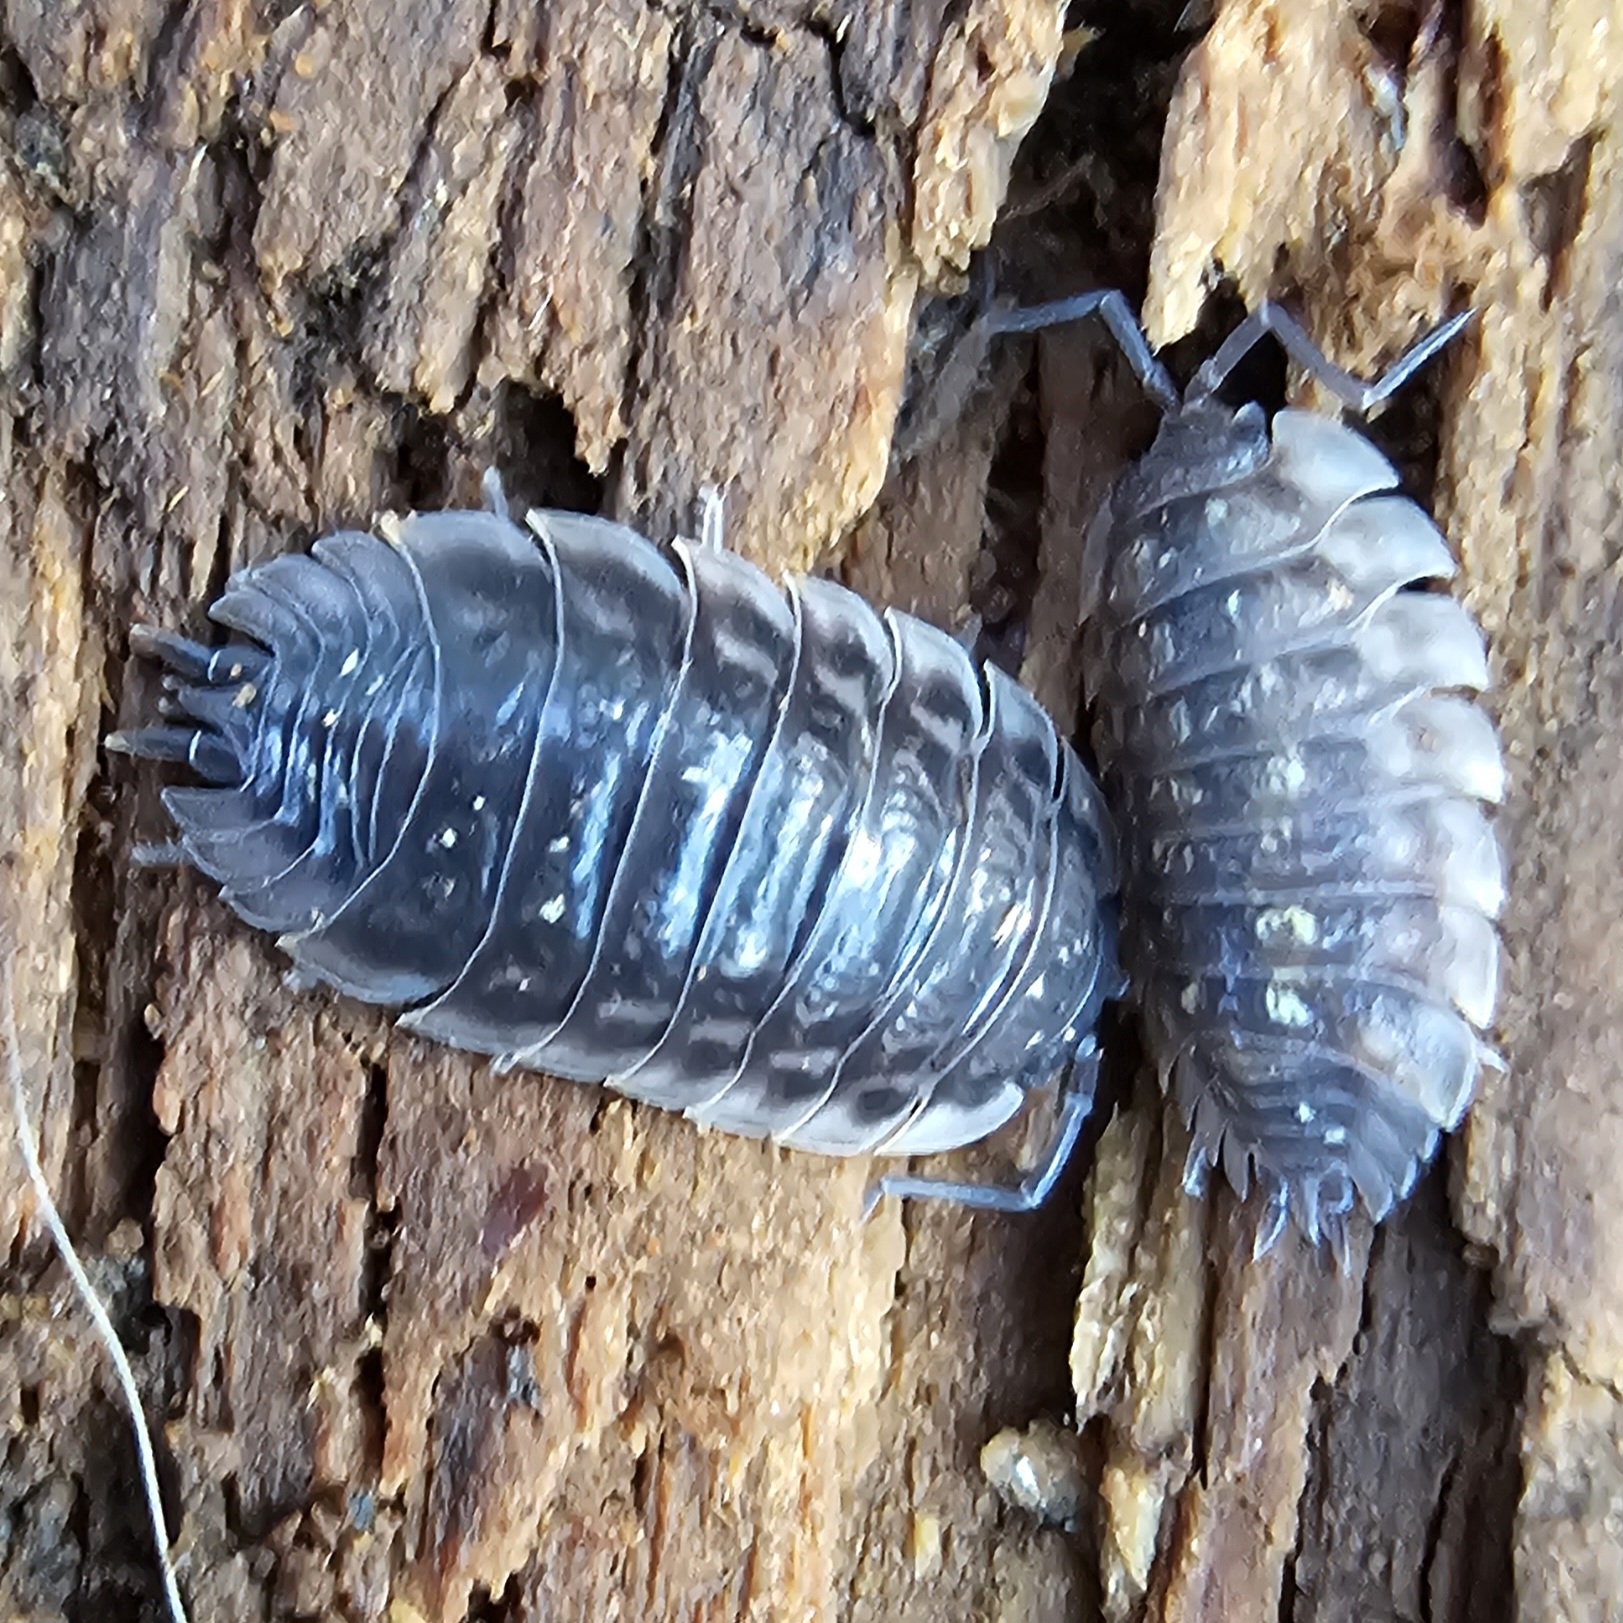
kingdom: Animalia
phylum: Arthropoda
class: Malacostraca
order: Isopoda
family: Oniscidae
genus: Oniscus
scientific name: Oniscus asellus
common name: Common shiny woodlouse
